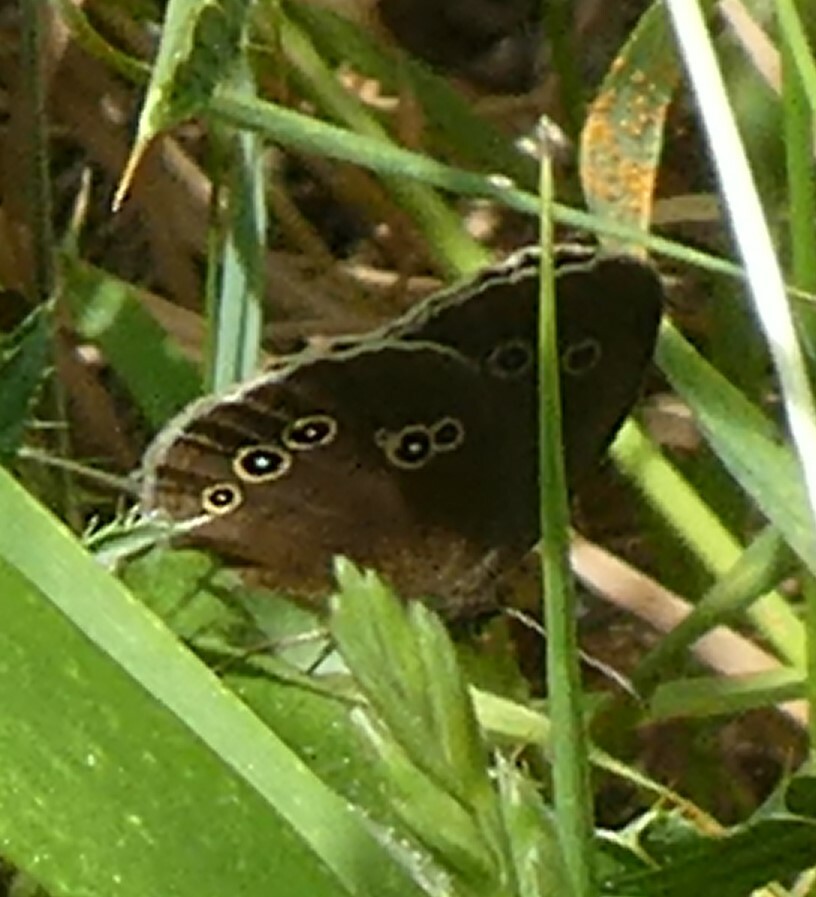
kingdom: Animalia
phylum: Arthropoda
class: Insecta
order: Lepidoptera
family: Nymphalidae
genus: Aphantopus
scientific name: Aphantopus hyperantus
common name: Ringlet
